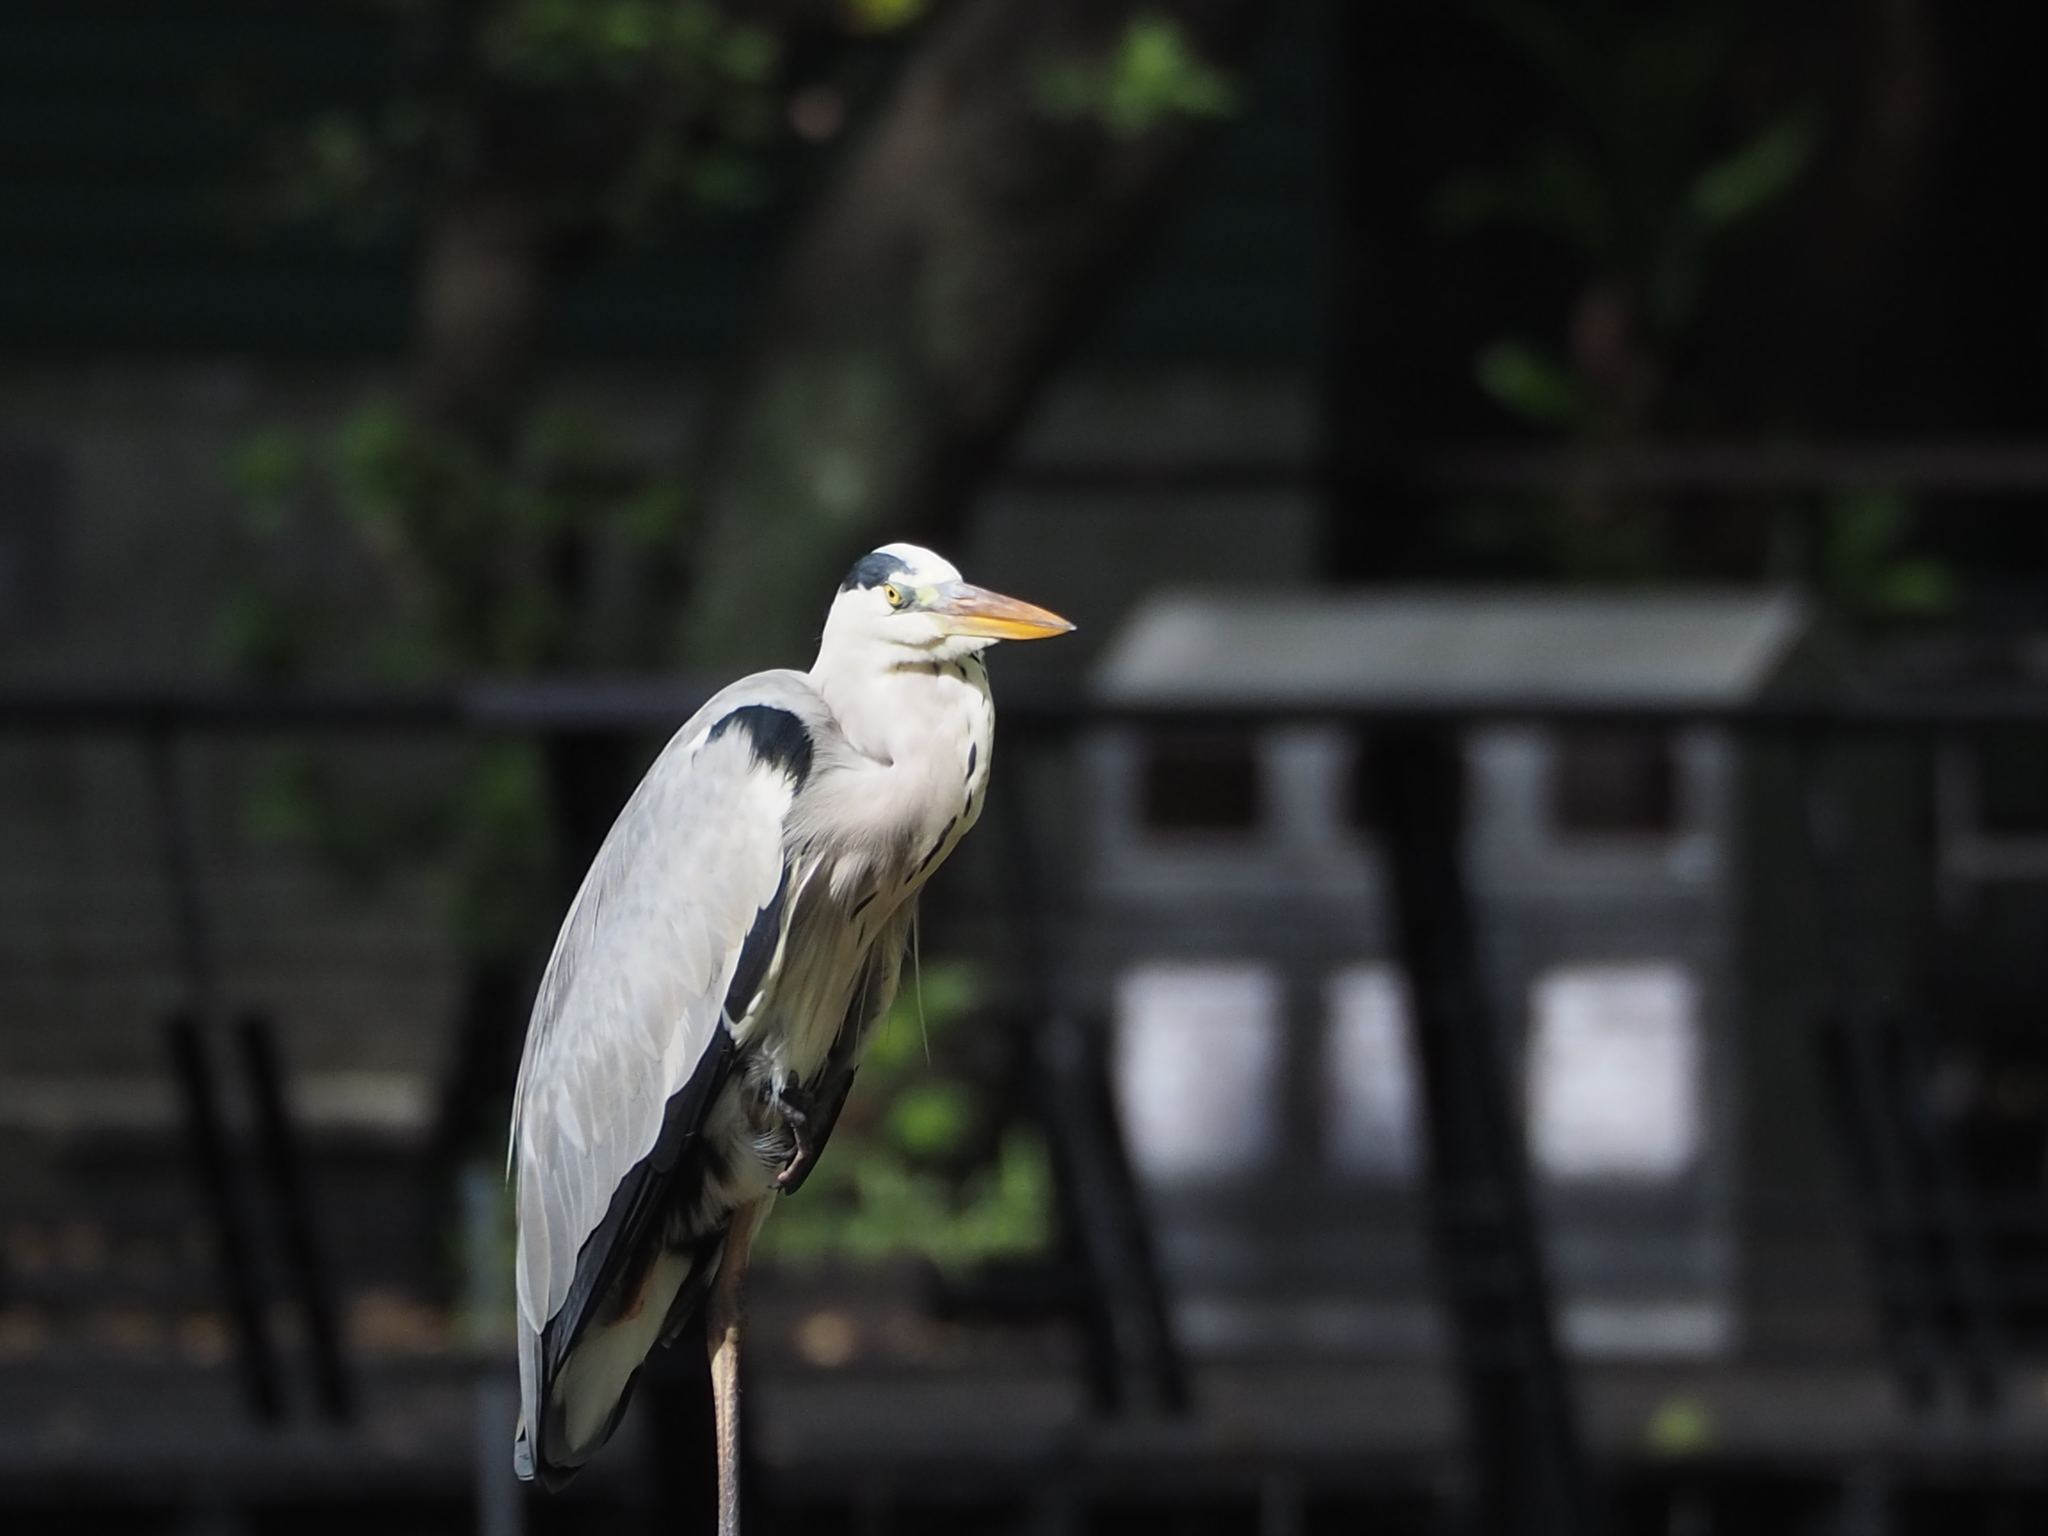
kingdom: Animalia
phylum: Chordata
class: Aves
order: Pelecaniformes
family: Ardeidae
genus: Ardea
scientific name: Ardea cinerea
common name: Grey heron
